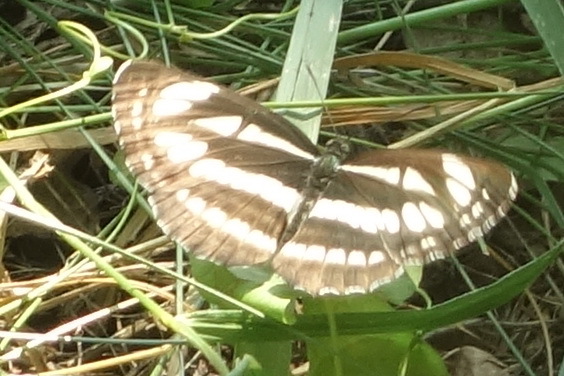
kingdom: Animalia
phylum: Arthropoda
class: Insecta
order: Lepidoptera
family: Nymphalidae
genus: Neptis
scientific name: Neptis sappho
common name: Common glider
